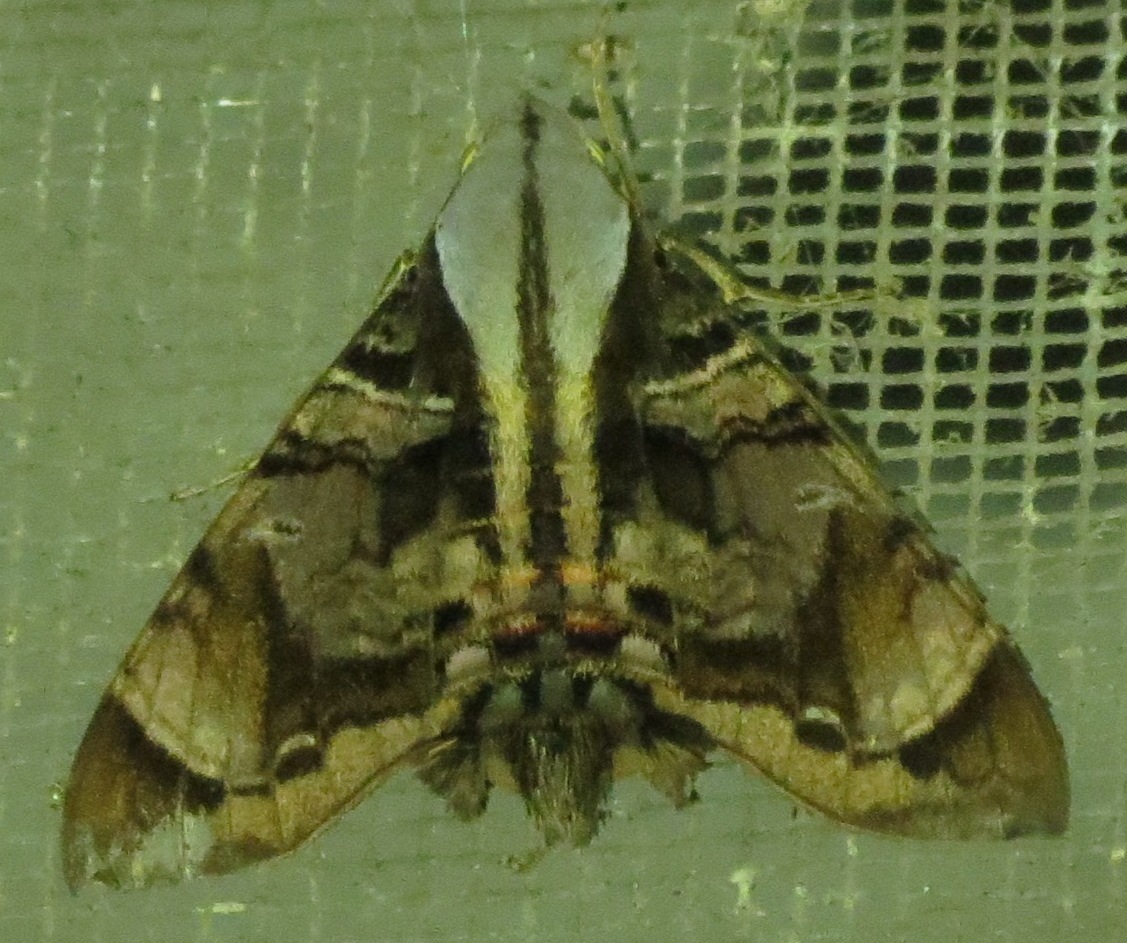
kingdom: Animalia
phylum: Arthropoda
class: Insecta
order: Lepidoptera
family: Sphingidae
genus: Eupyrrhoglossum
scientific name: Eupyrrhoglossum sagra
